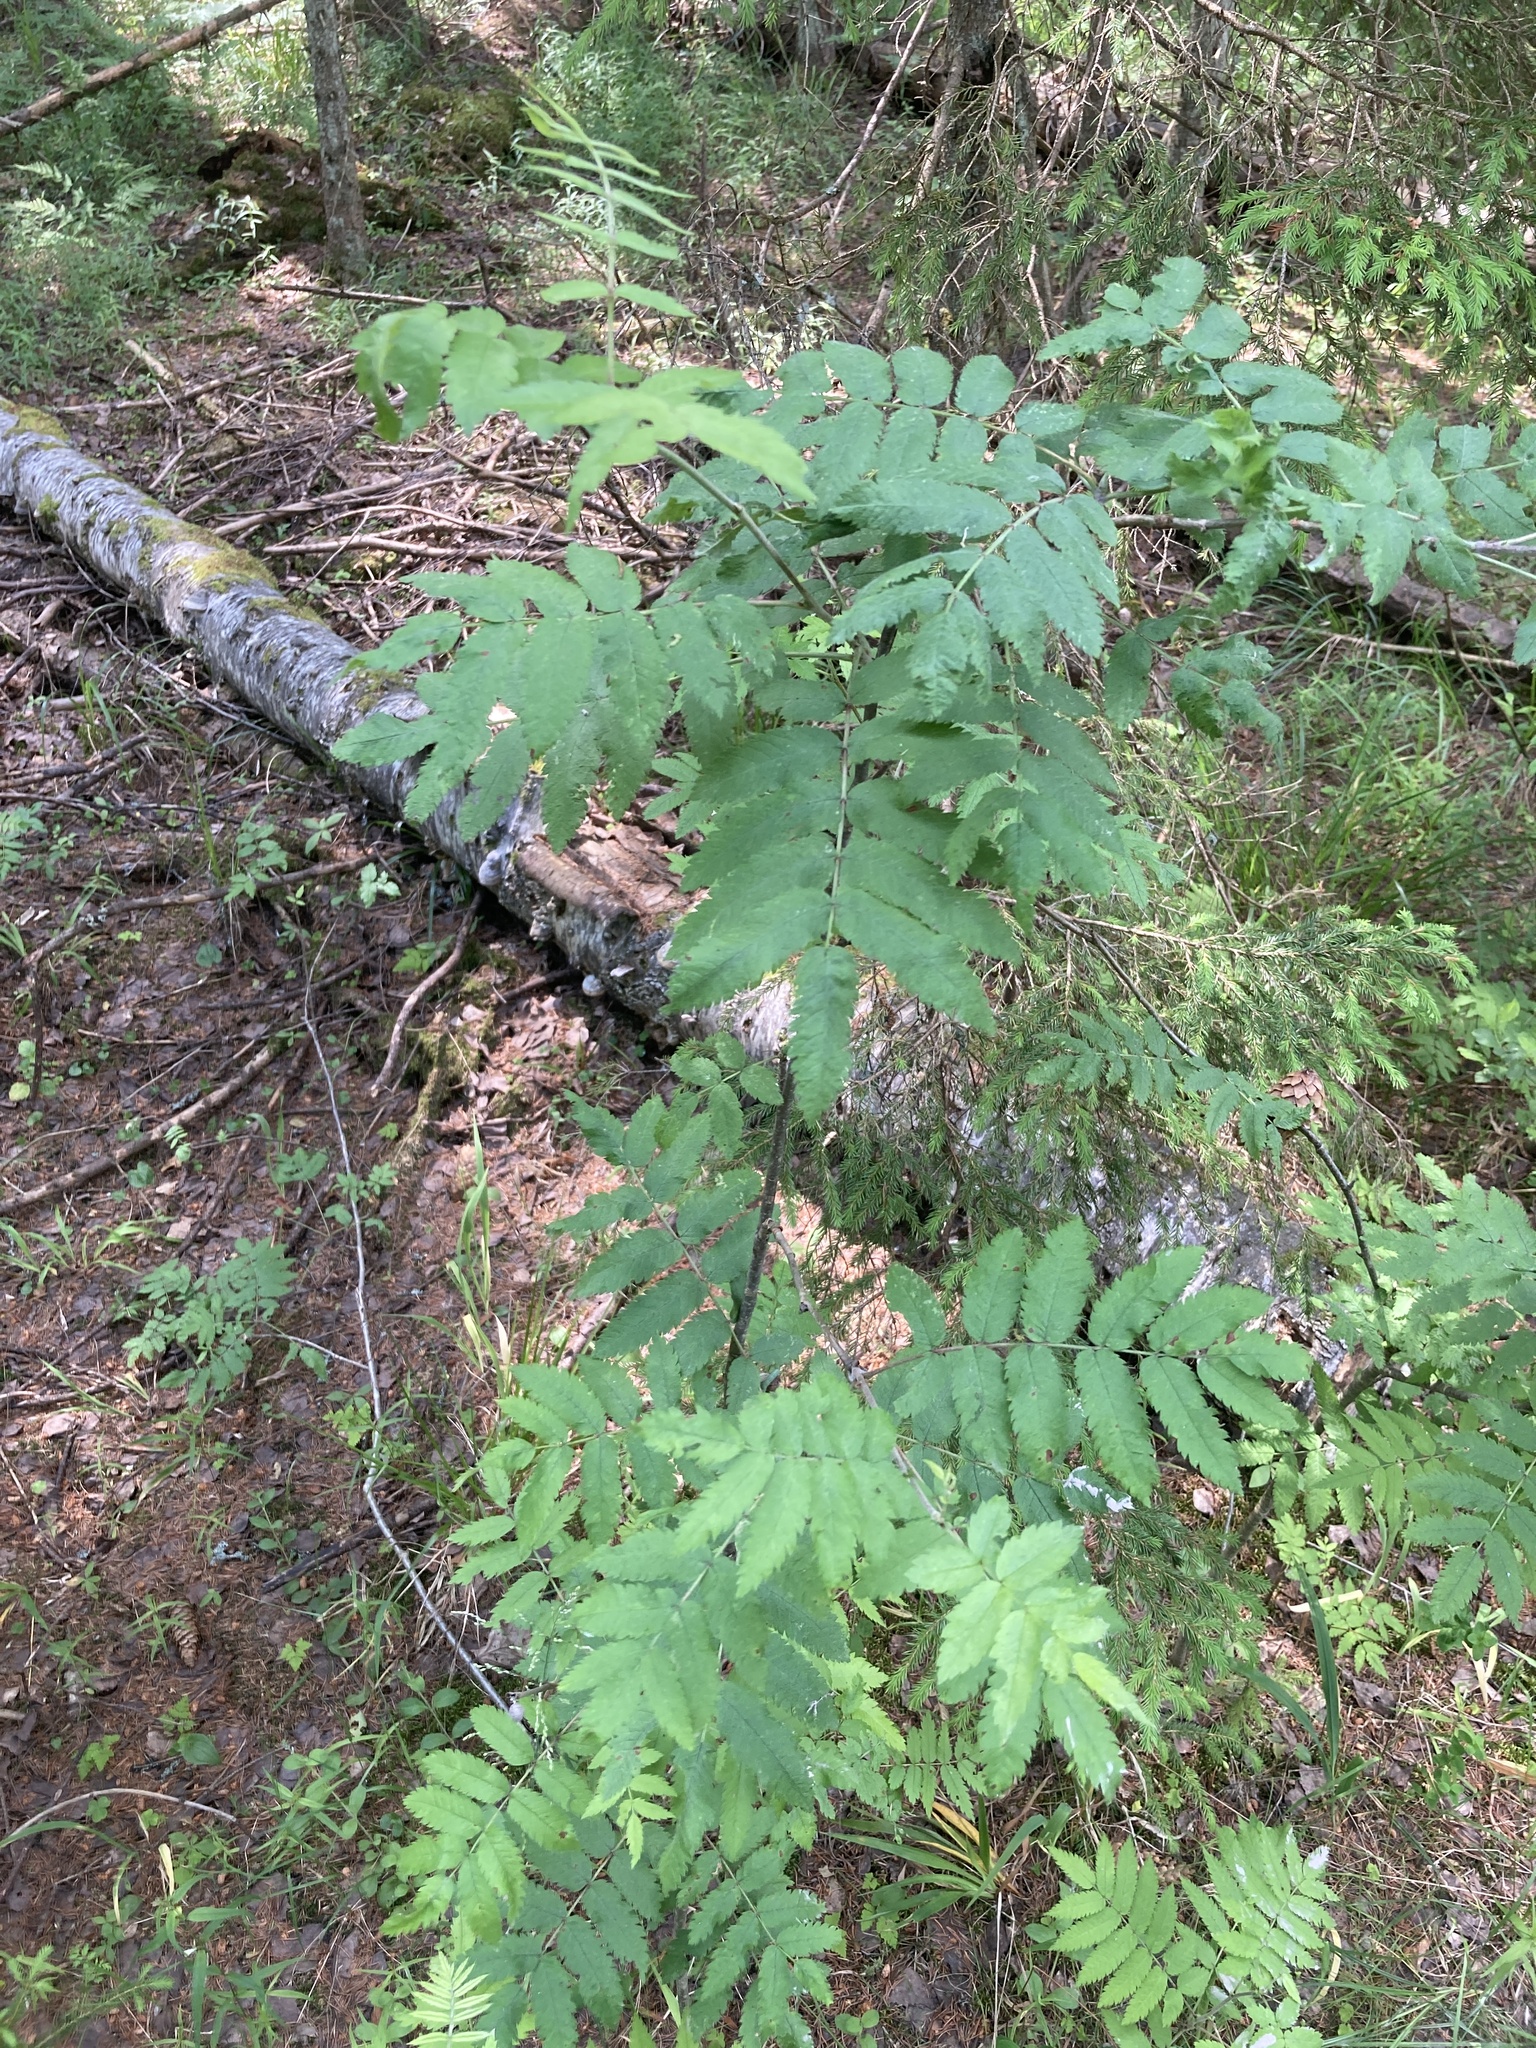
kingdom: Plantae
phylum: Tracheophyta
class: Magnoliopsida
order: Rosales
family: Rosaceae
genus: Sorbus
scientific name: Sorbus aucuparia
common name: Rowan
